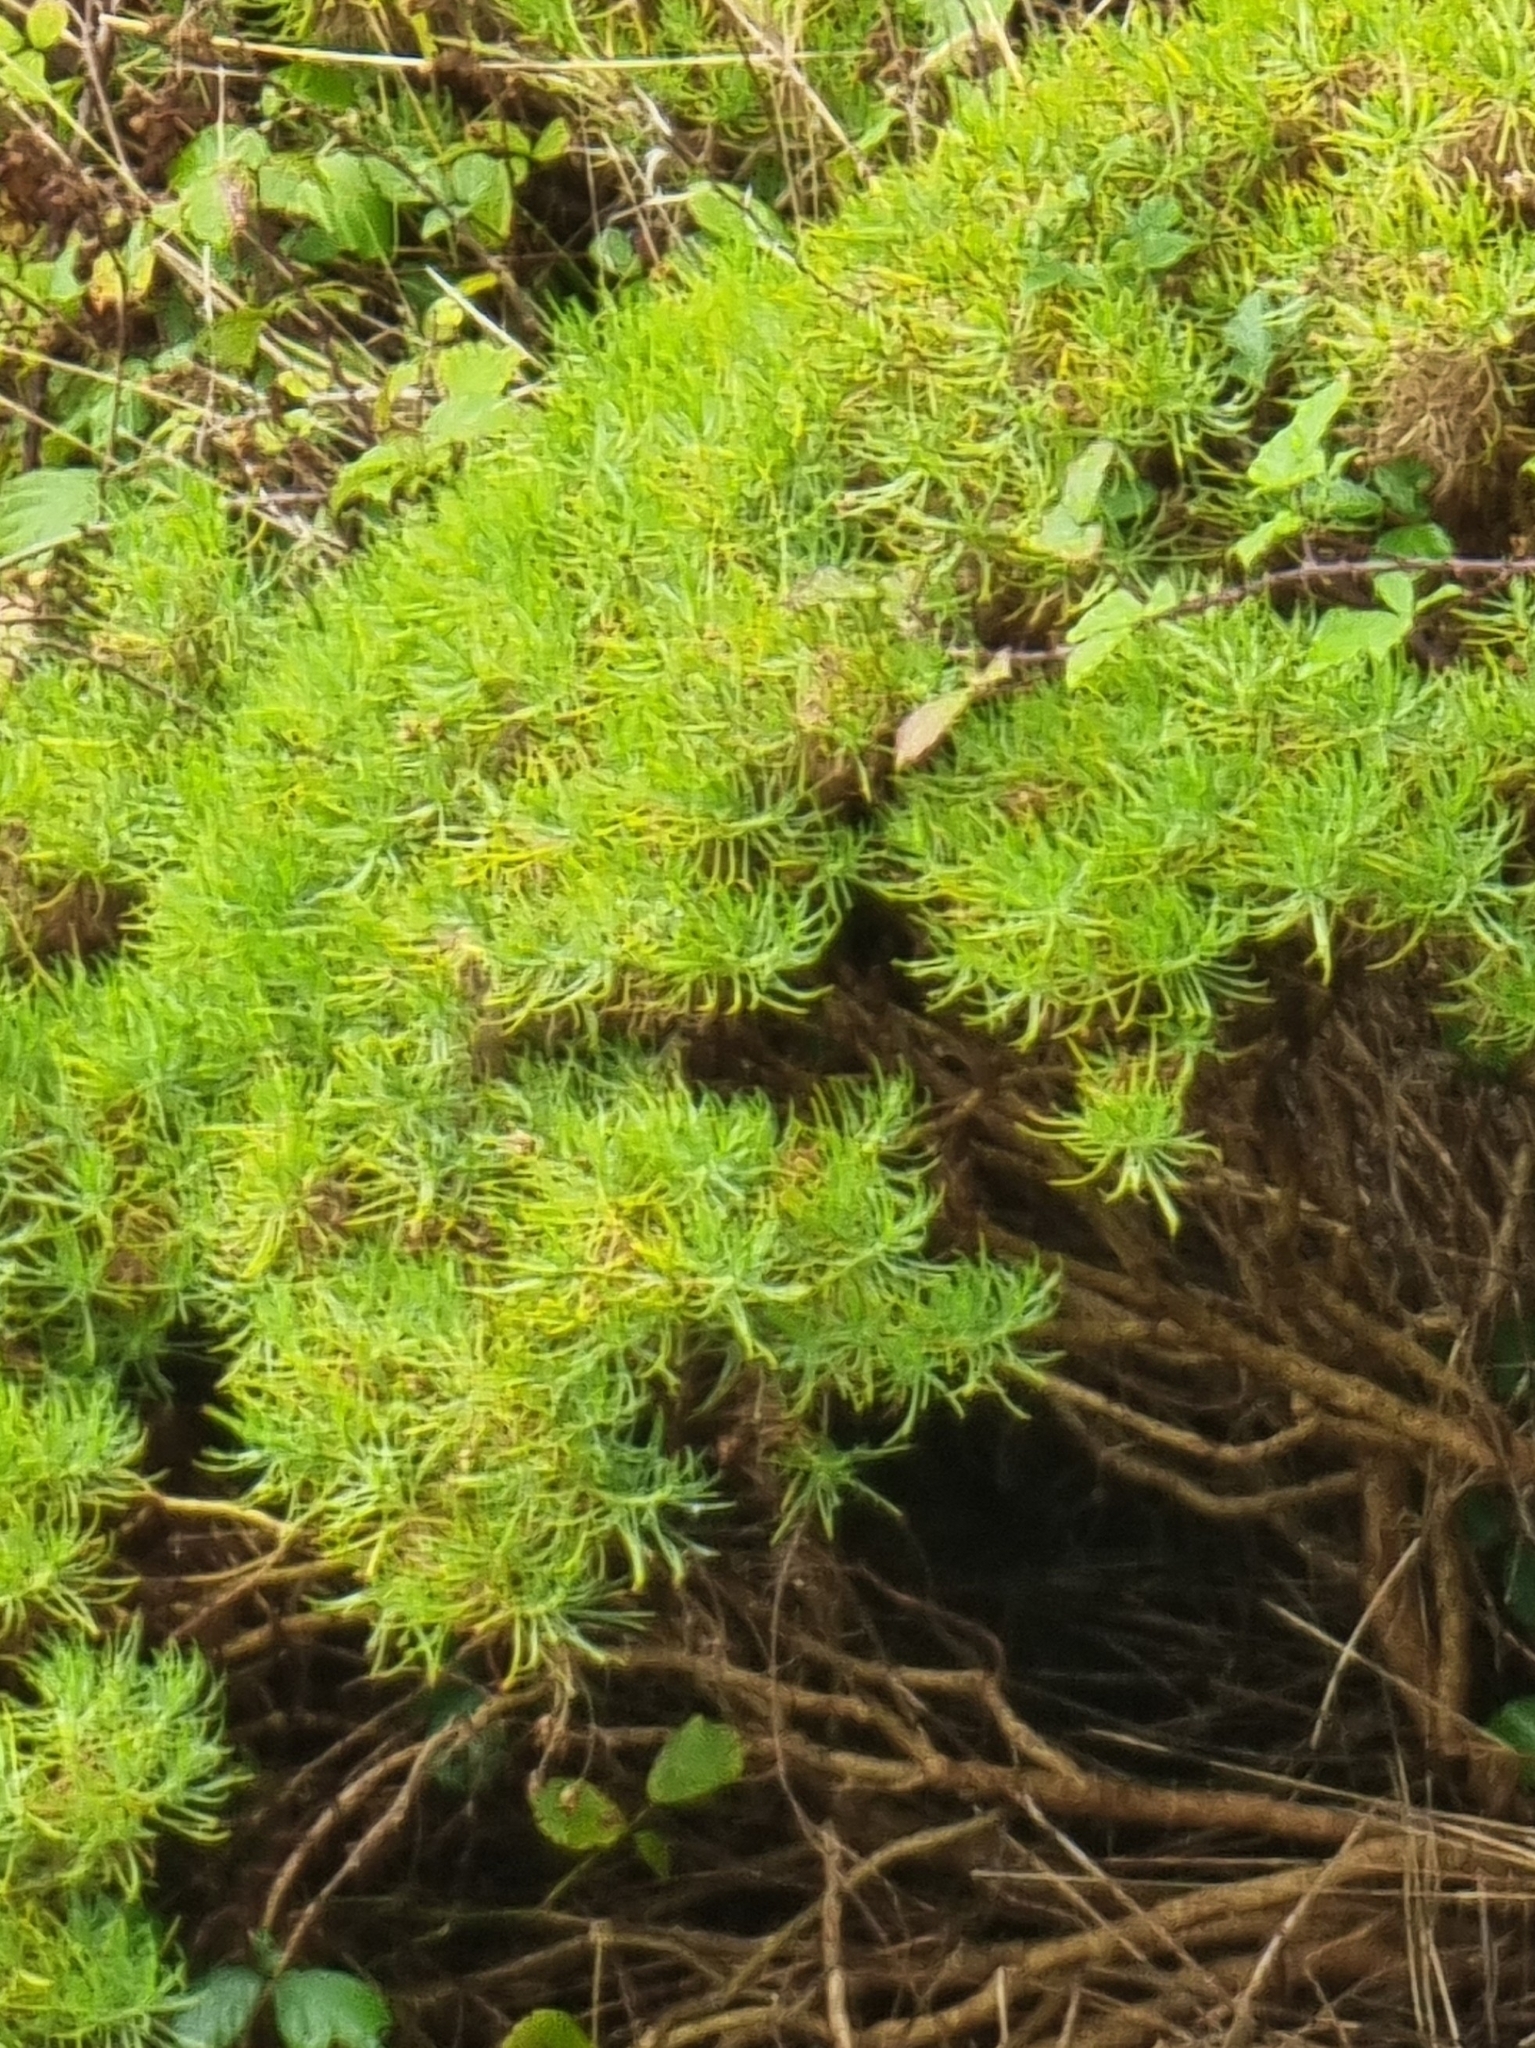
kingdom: Plantae
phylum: Tracheophyta
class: Magnoliopsida
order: Lamiales
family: Plantaginaceae
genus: Plantago
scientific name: Plantago arborescens
